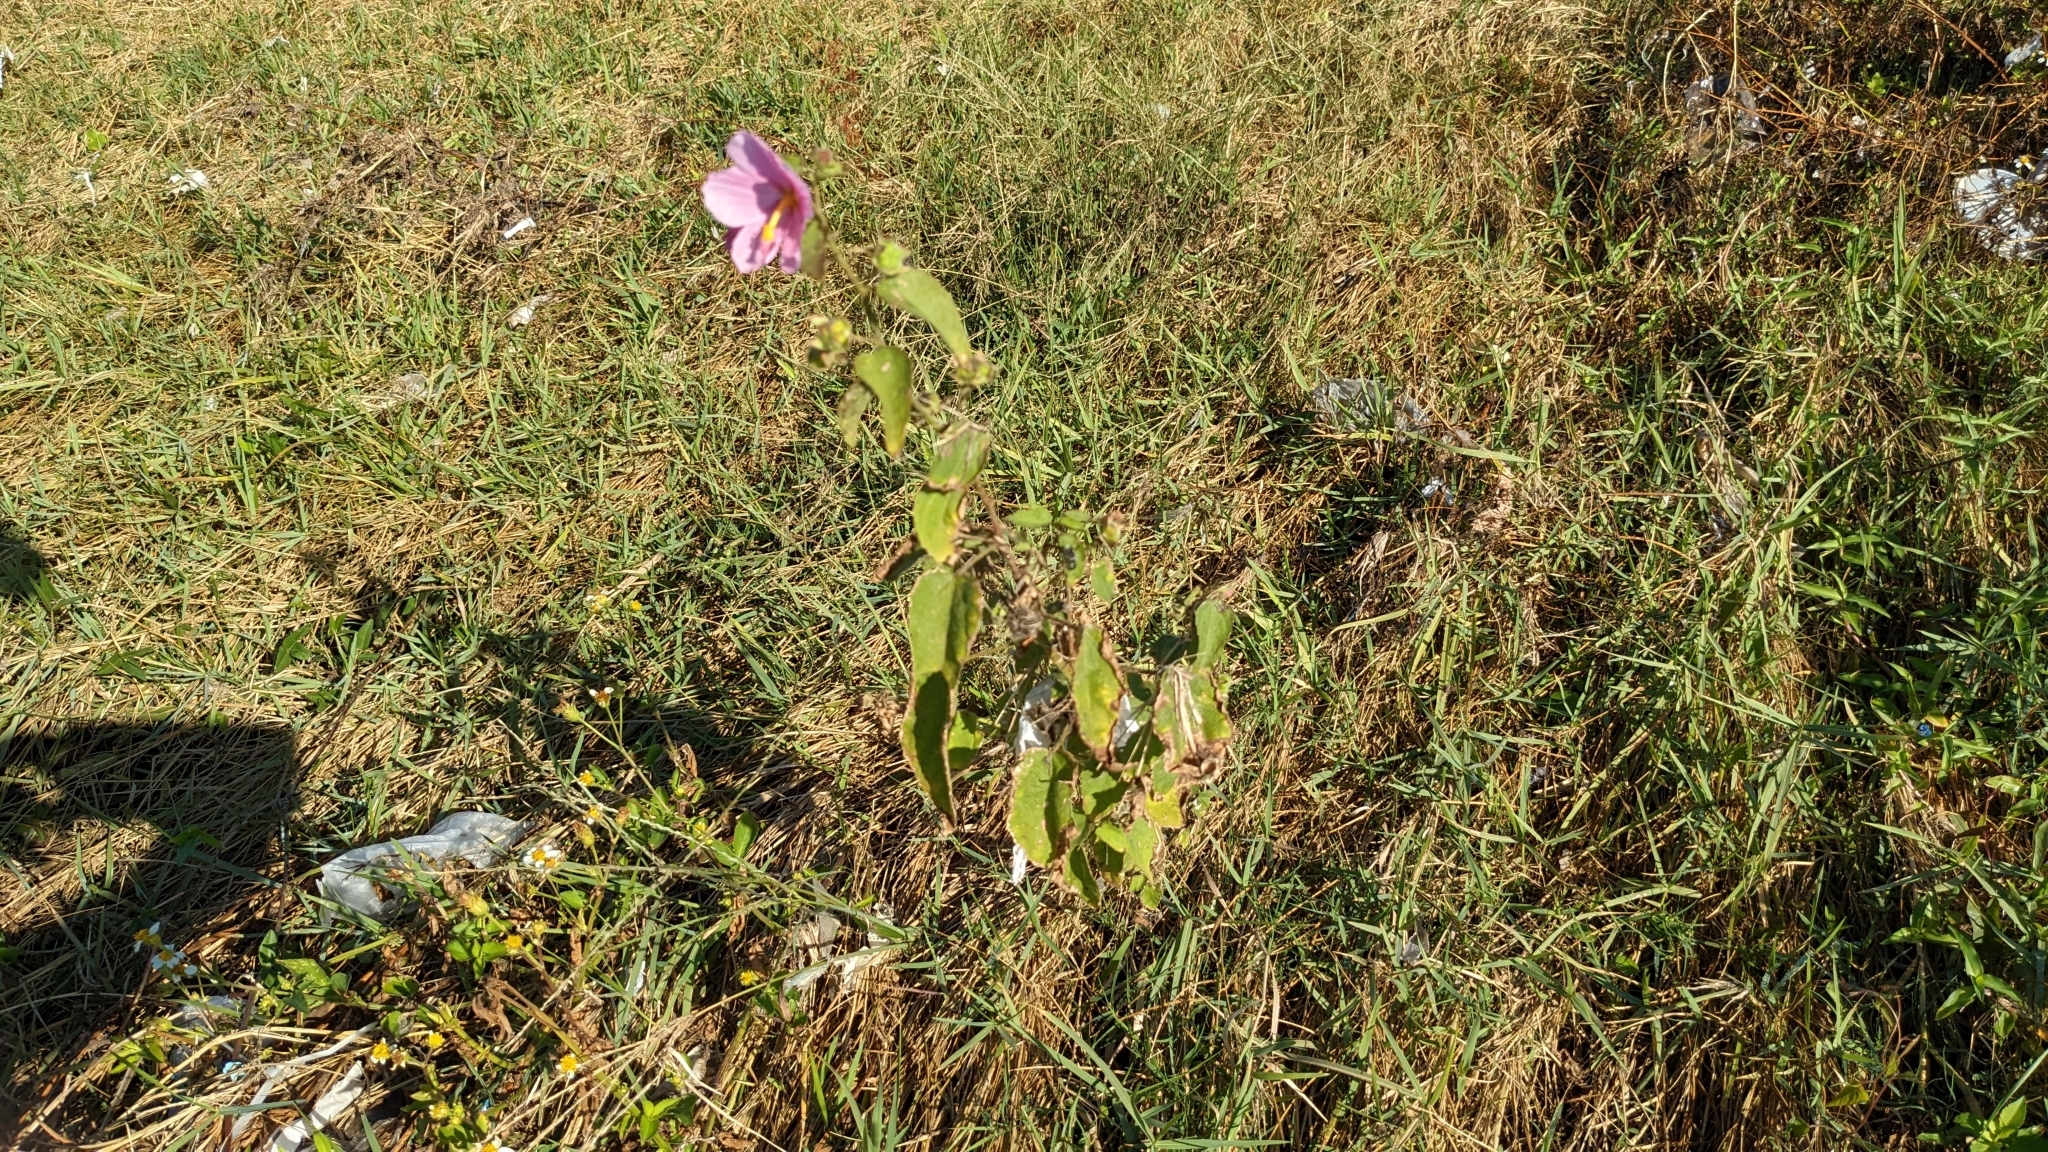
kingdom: Plantae
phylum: Tracheophyta
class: Magnoliopsida
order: Malvales
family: Malvaceae
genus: Kosteletzkya
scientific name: Kosteletzkya pentacarpos
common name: Virginia saltmarsh mallow
